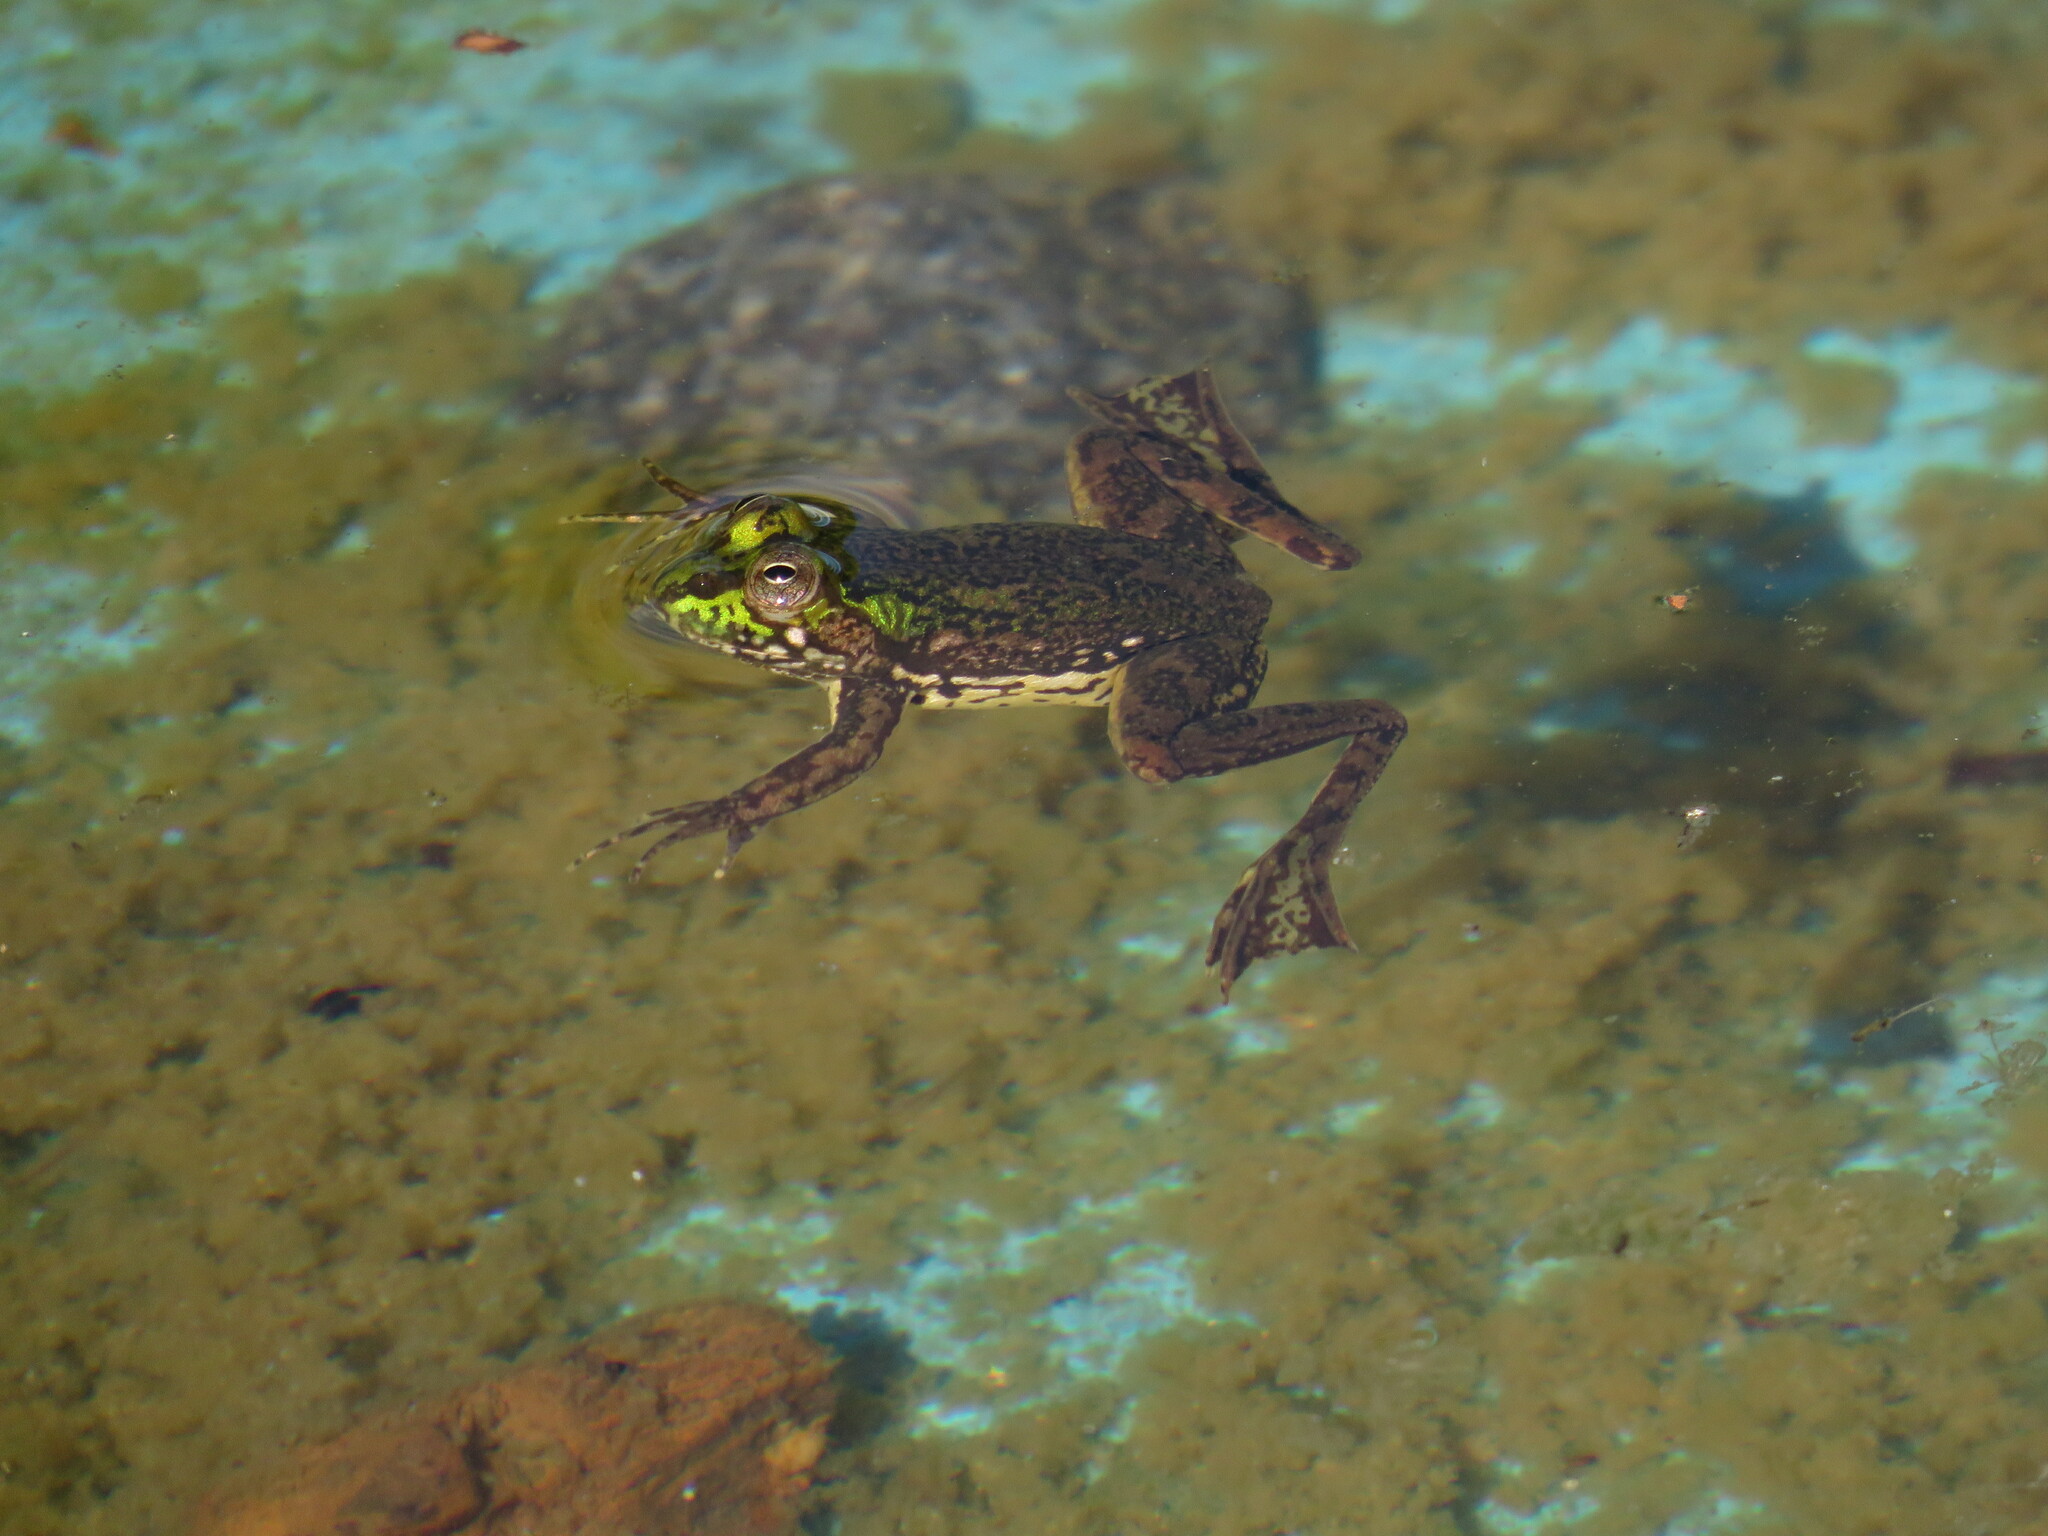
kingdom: Animalia
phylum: Chordata
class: Amphibia
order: Anura
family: Hylidae
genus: Pseudis
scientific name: Pseudis minuta
